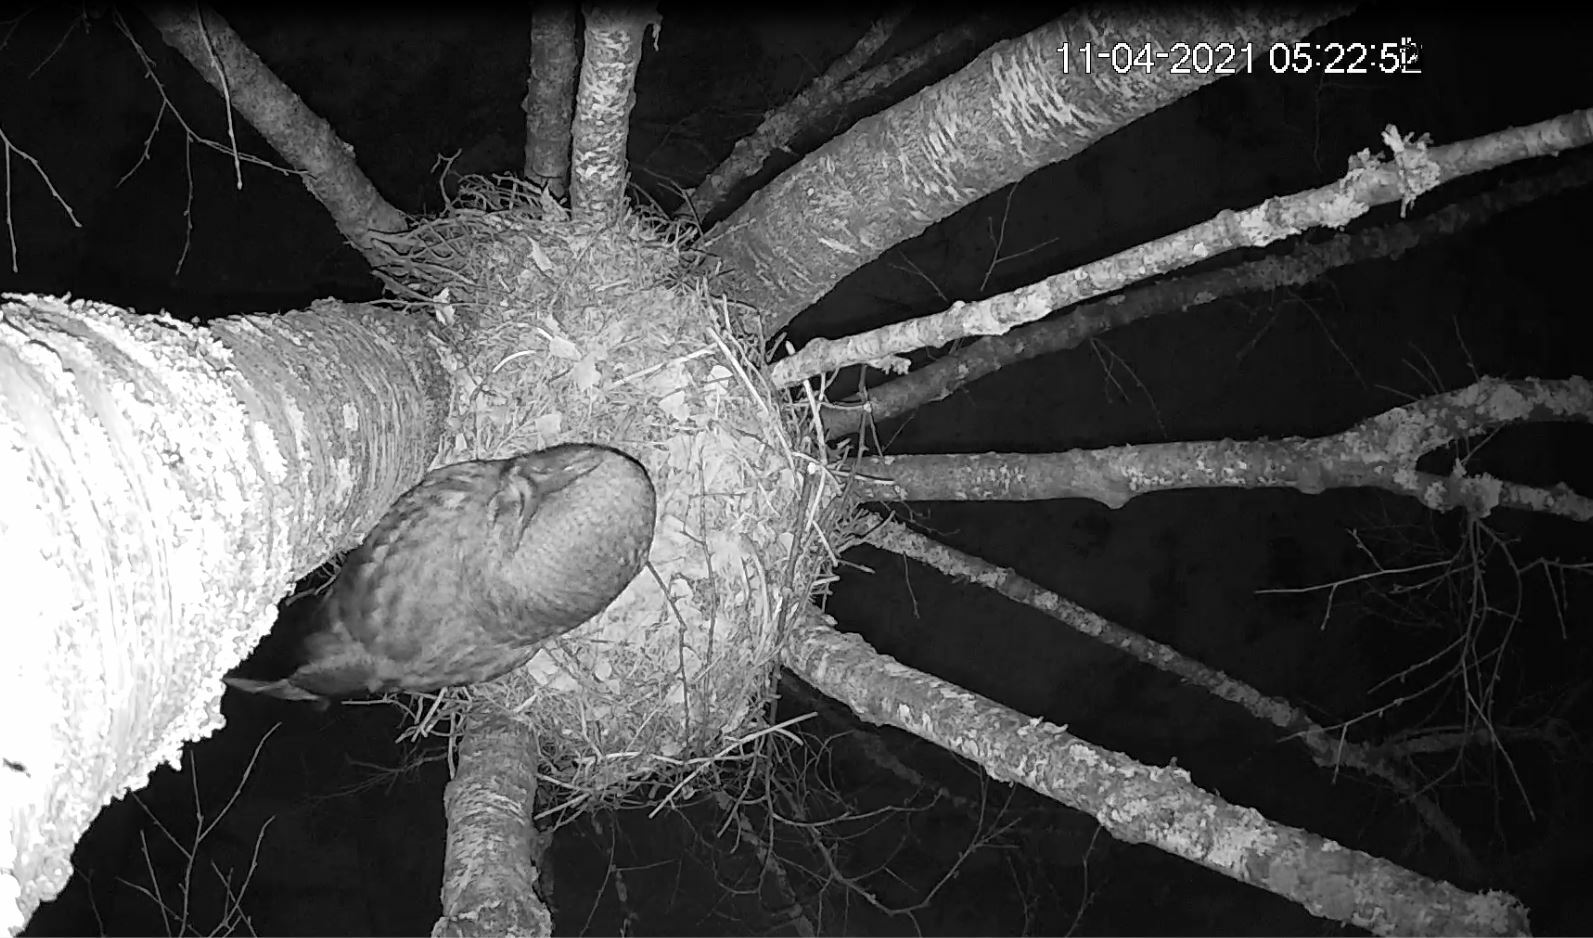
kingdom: Animalia
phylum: Chordata
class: Aves
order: Strigiformes
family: Strigidae
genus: Strix
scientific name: Strix nebulosa
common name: Great grey owl
